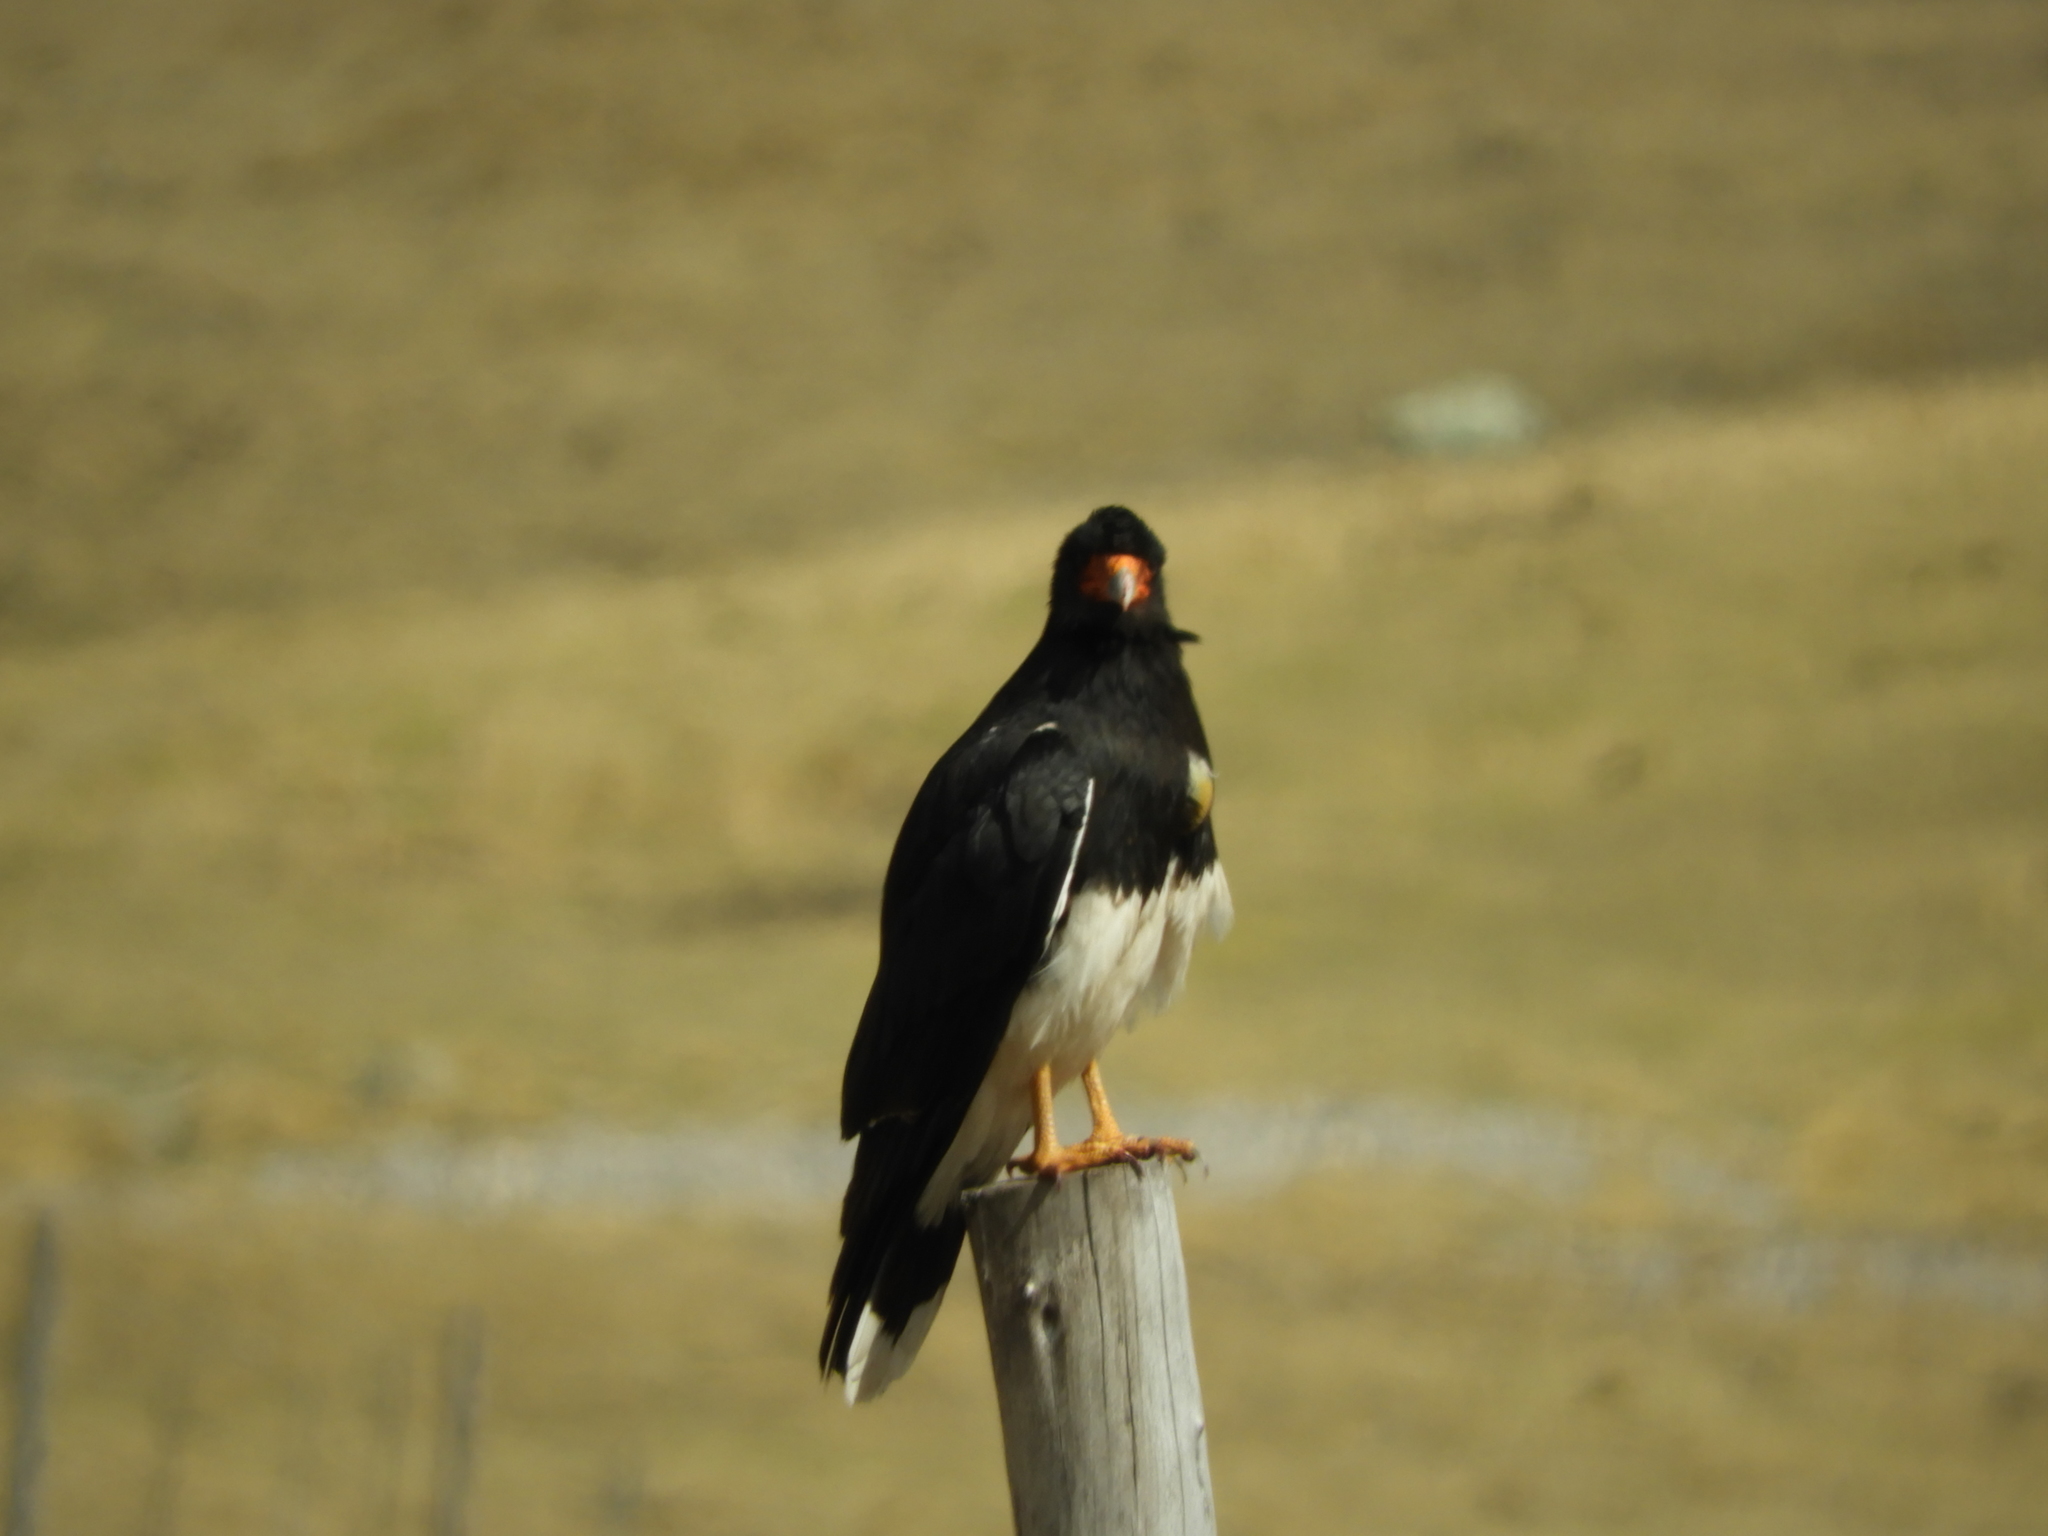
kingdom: Animalia
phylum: Chordata
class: Aves
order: Falconiformes
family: Falconidae
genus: Daptrius
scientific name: Daptrius
